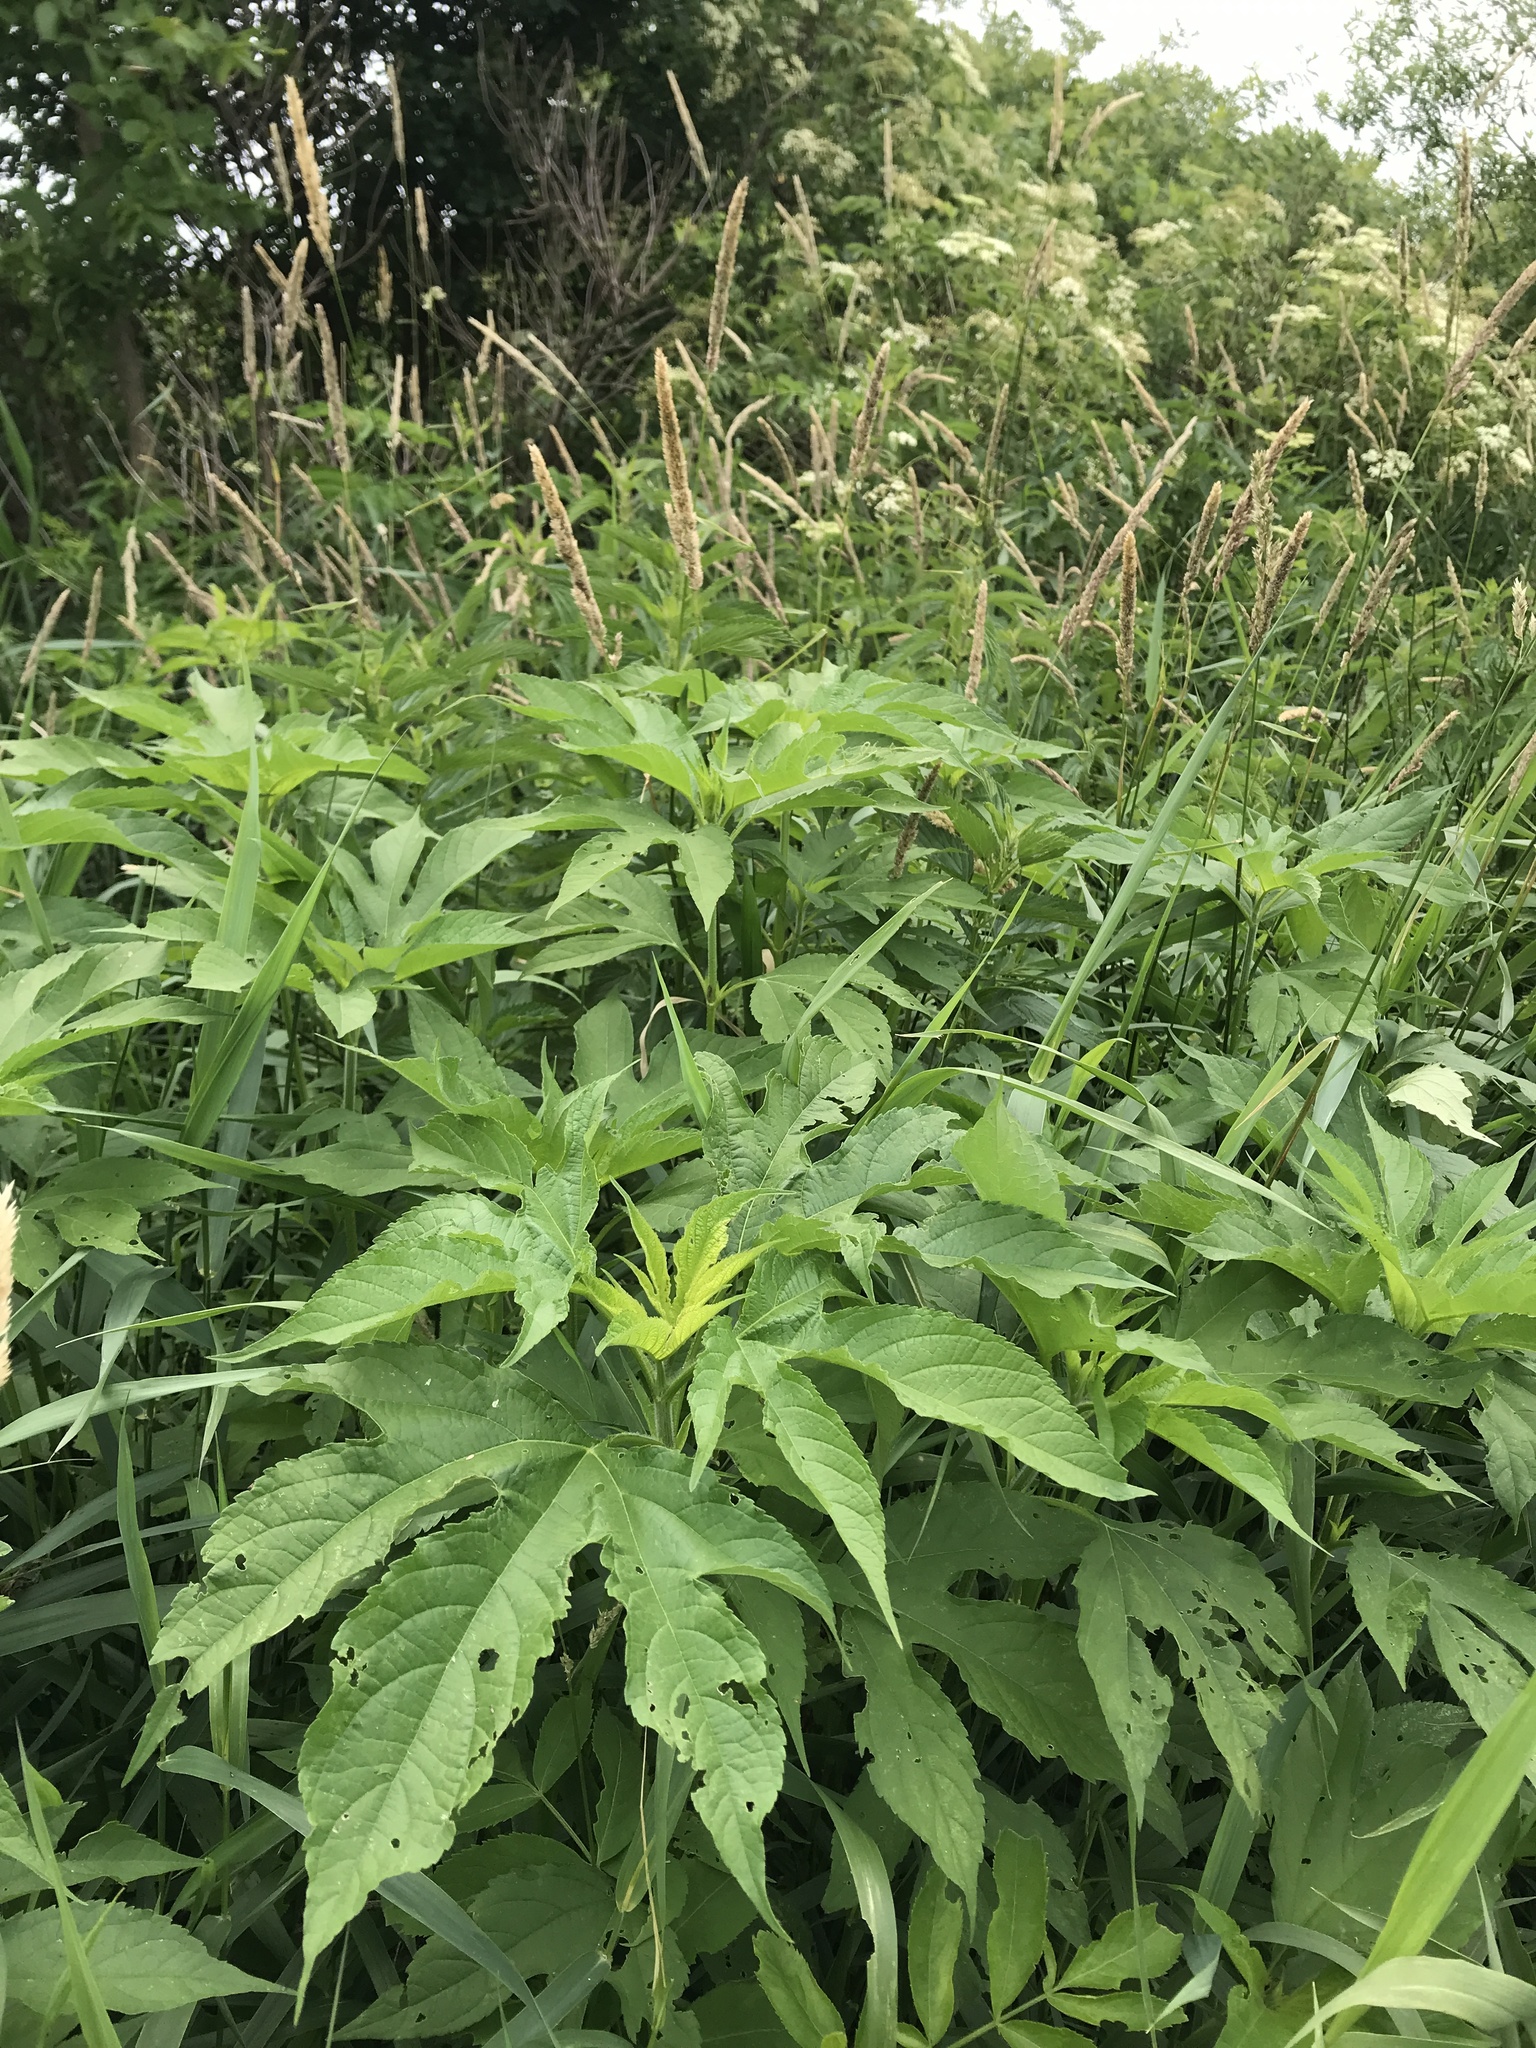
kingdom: Plantae
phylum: Tracheophyta
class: Magnoliopsida
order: Asterales
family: Asteraceae
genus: Ambrosia
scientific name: Ambrosia trifida
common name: Giant ragweed
